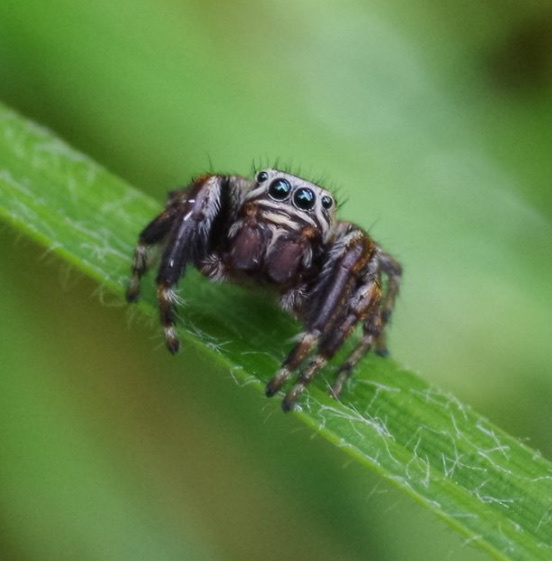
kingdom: Animalia
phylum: Arthropoda
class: Arachnida
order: Araneae
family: Salticidae
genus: Evarcha
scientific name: Evarcha arcuata
